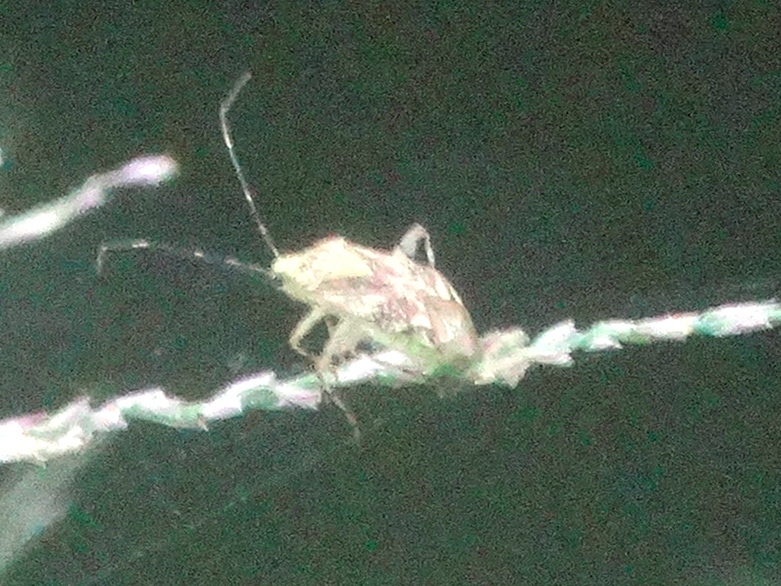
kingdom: Animalia
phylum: Arthropoda
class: Insecta
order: Hemiptera
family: Miridae
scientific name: Miridae
